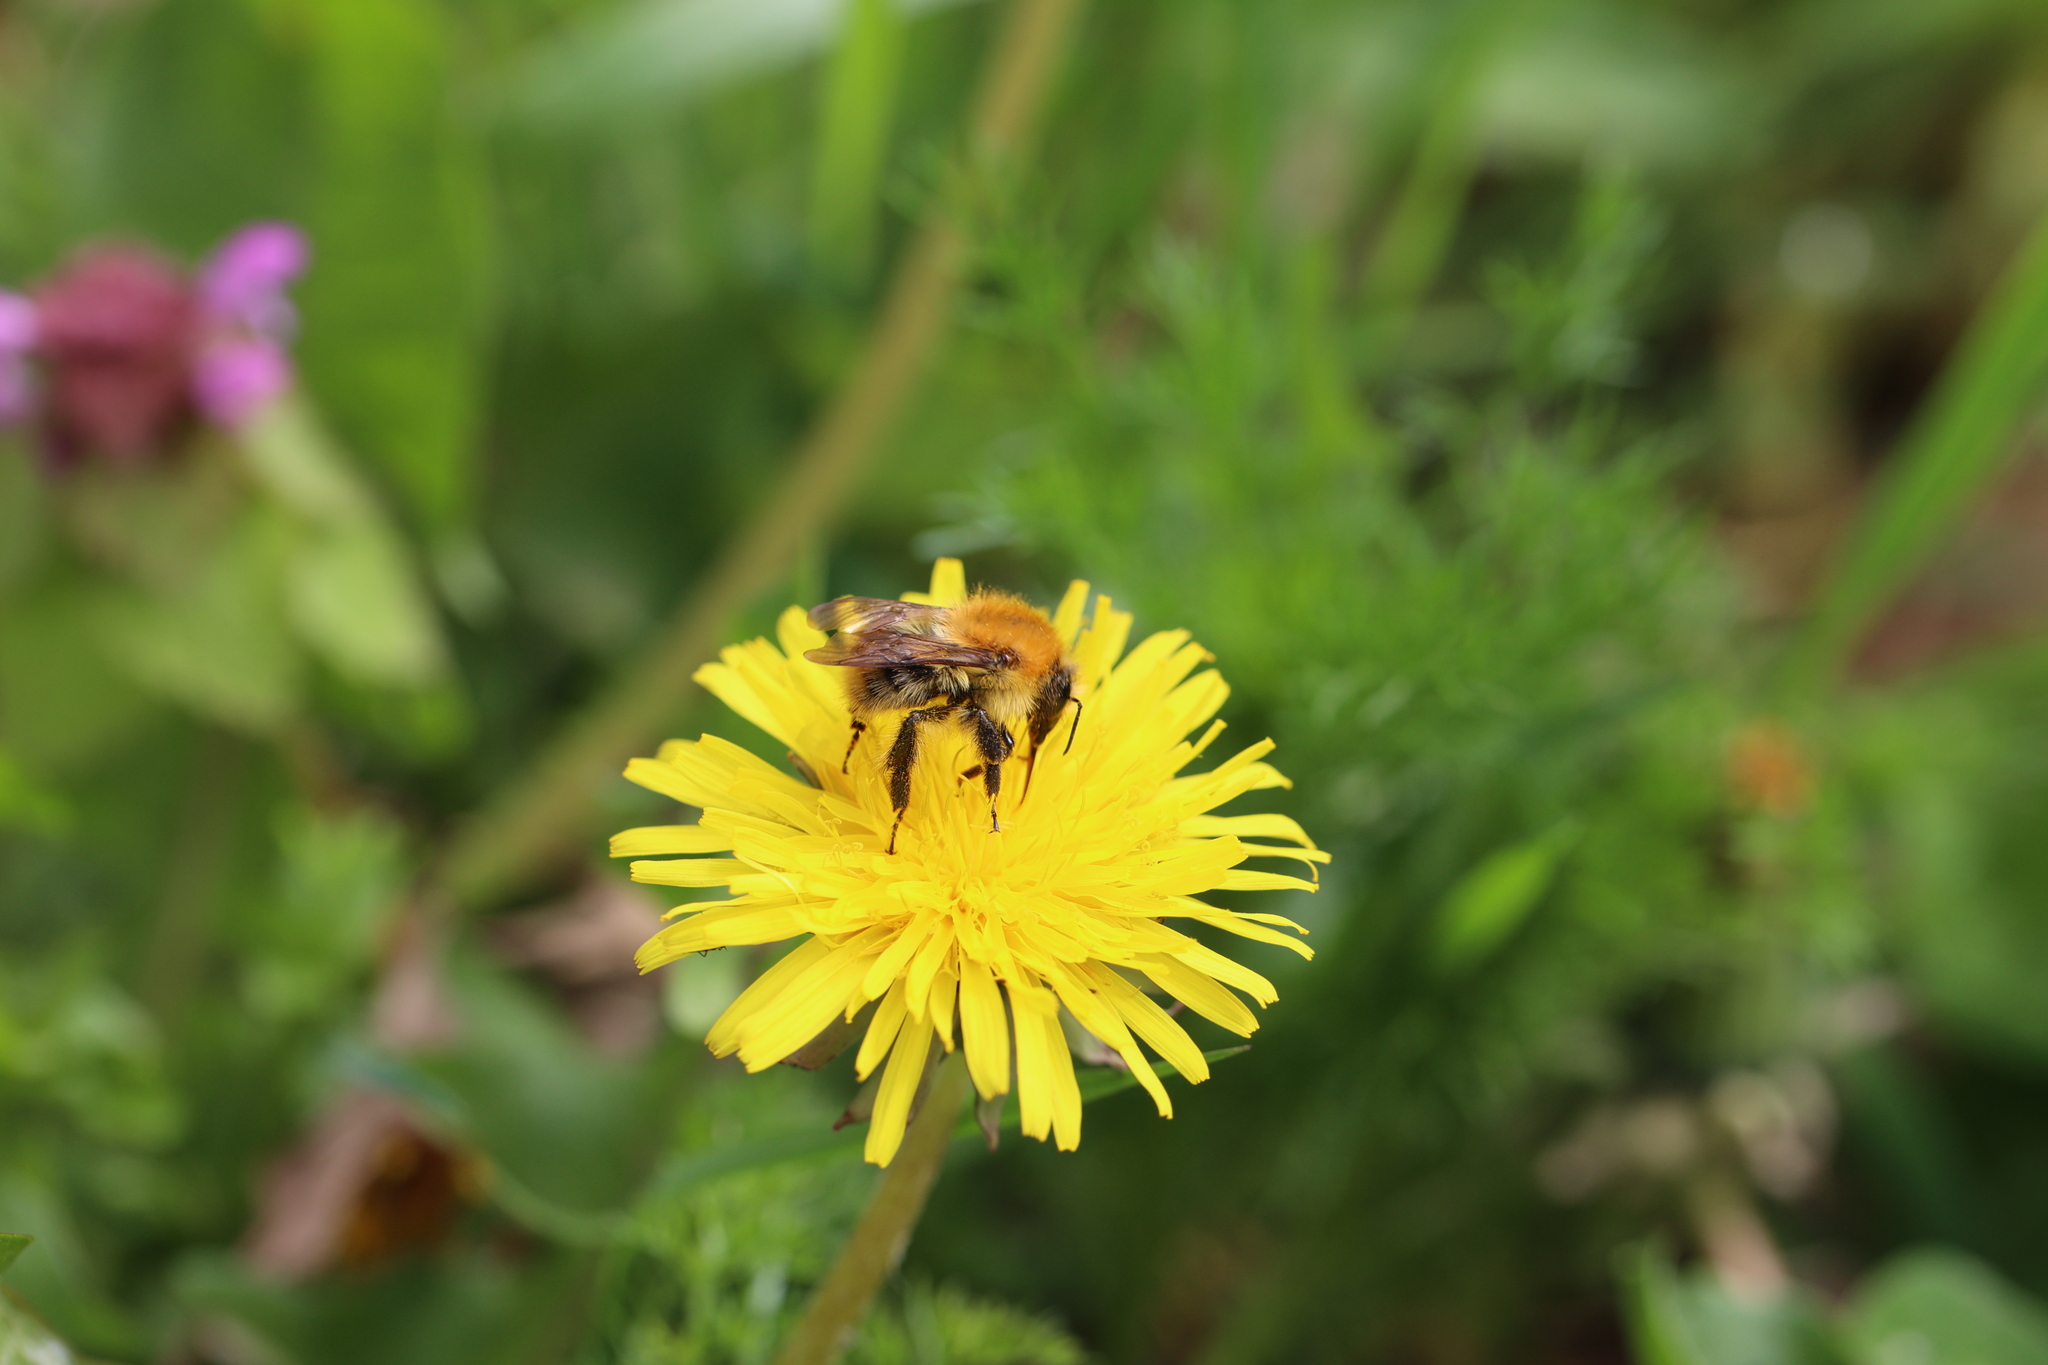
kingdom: Animalia
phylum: Arthropoda
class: Insecta
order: Hymenoptera
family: Apidae
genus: Bombus
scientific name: Bombus pascuorum
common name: Common carder bee
